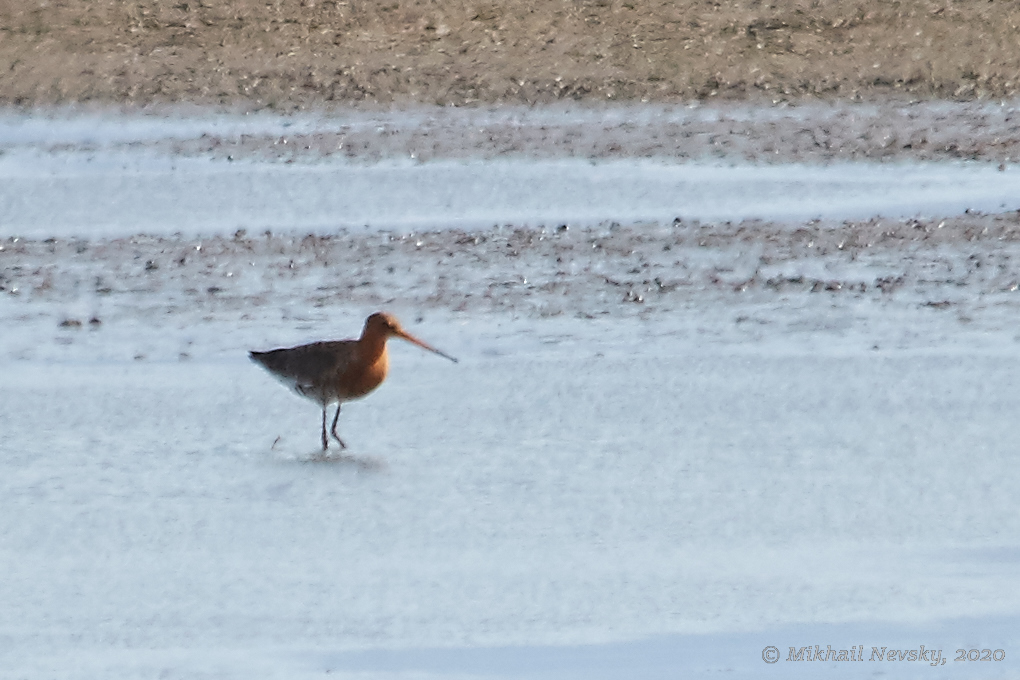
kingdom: Animalia
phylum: Chordata
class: Aves
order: Charadriiformes
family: Scolopacidae
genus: Limosa
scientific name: Limosa limosa
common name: Black-tailed godwit
